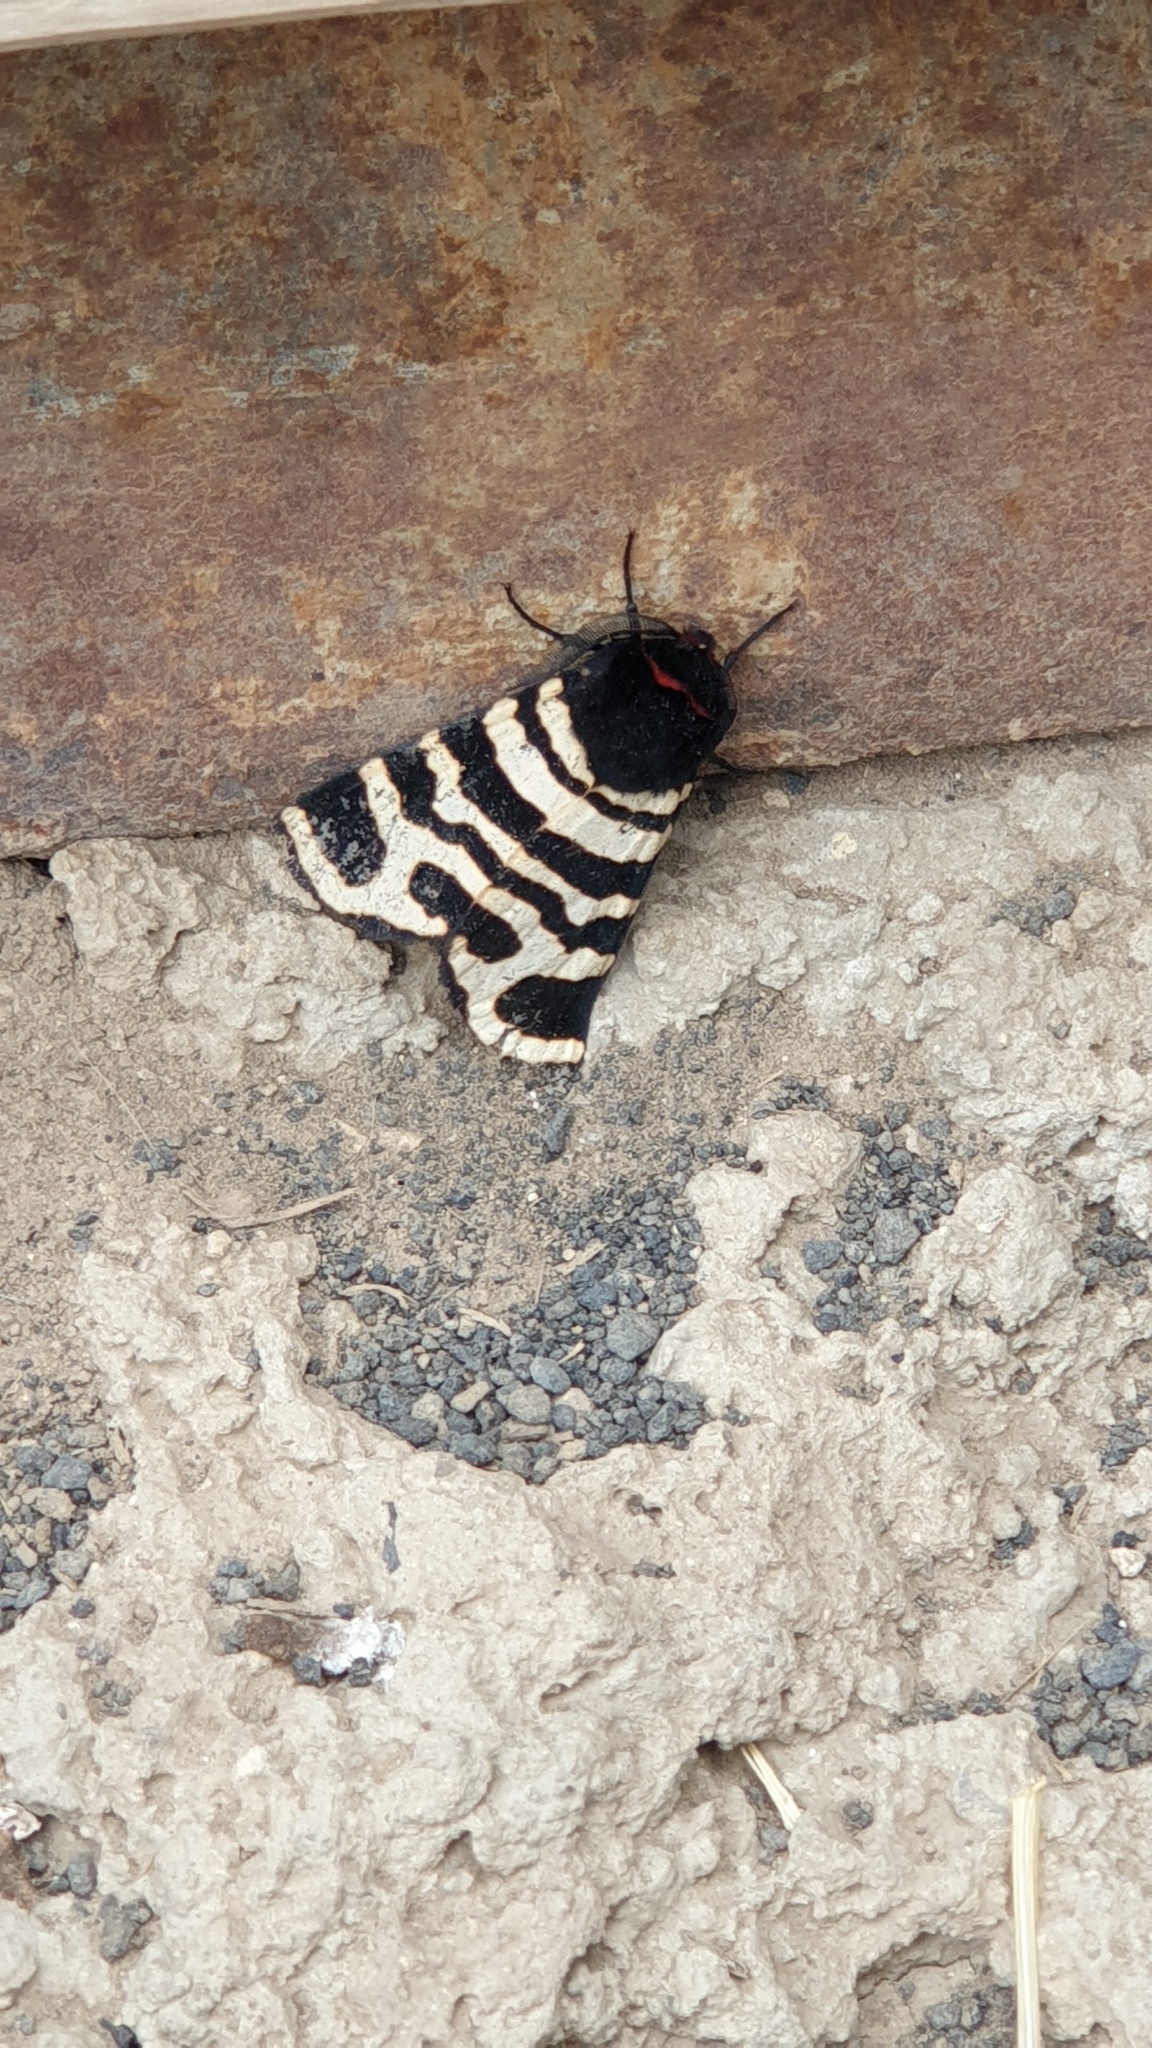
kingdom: Animalia
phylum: Arthropoda
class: Insecta
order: Lepidoptera
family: Erebidae
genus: Eucharia
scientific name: Eucharia festiva
